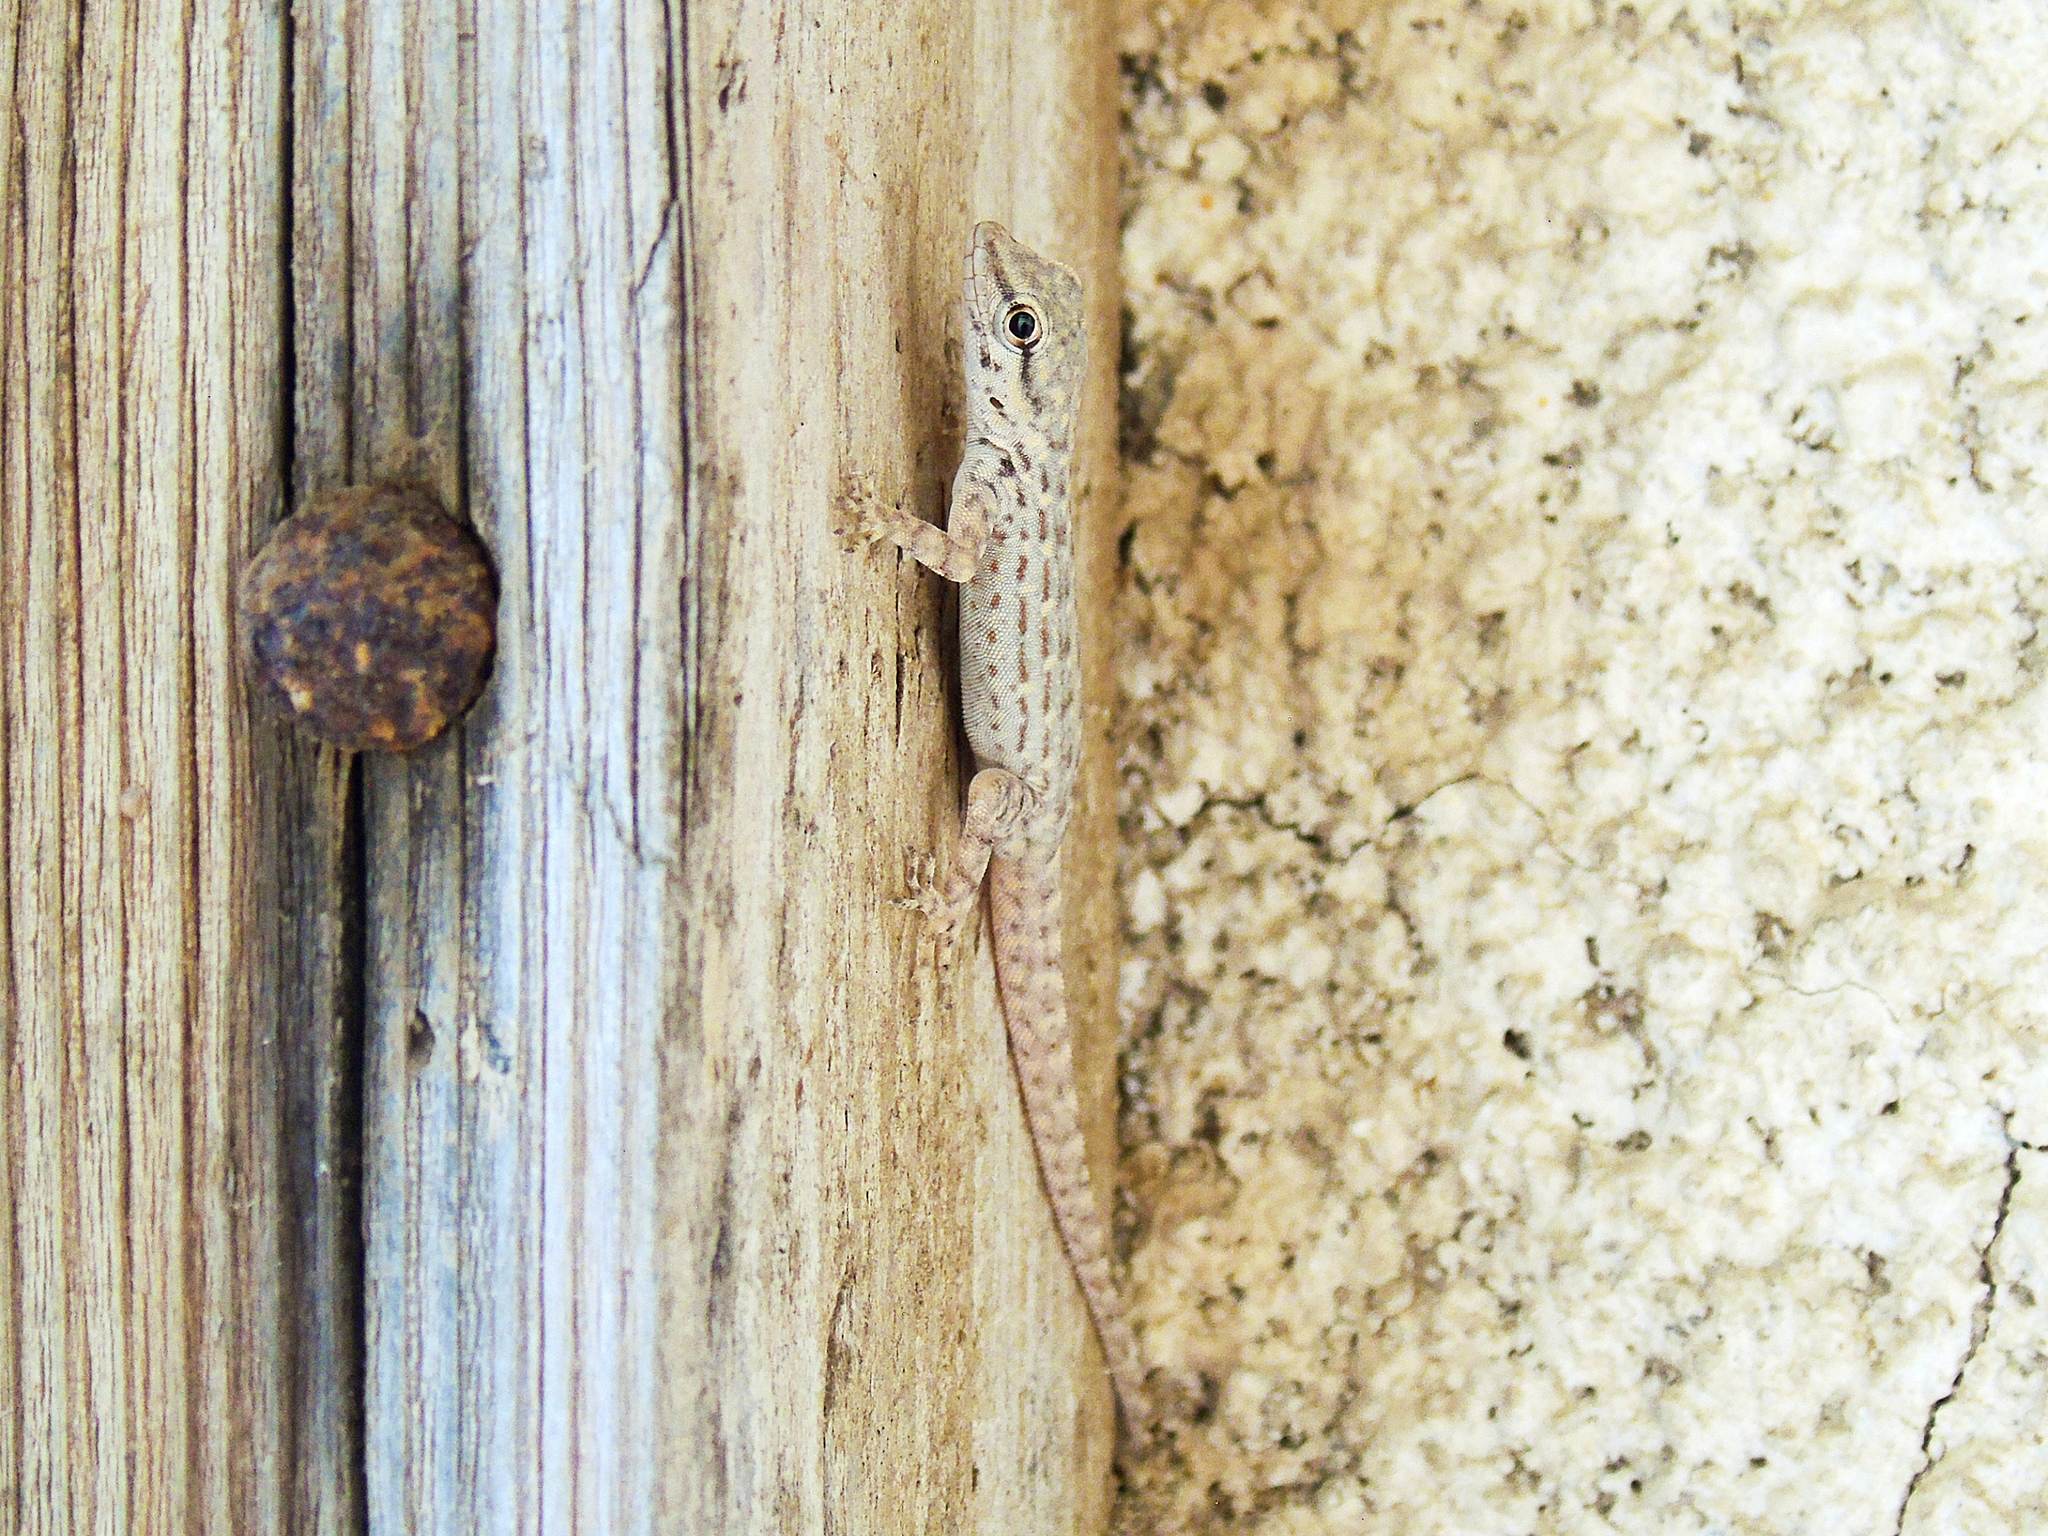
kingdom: Animalia
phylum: Chordata
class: Squamata
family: Sphaerodactylidae
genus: Pristurus
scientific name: Pristurus rupestris
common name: Blanford’s semaphore gecko
